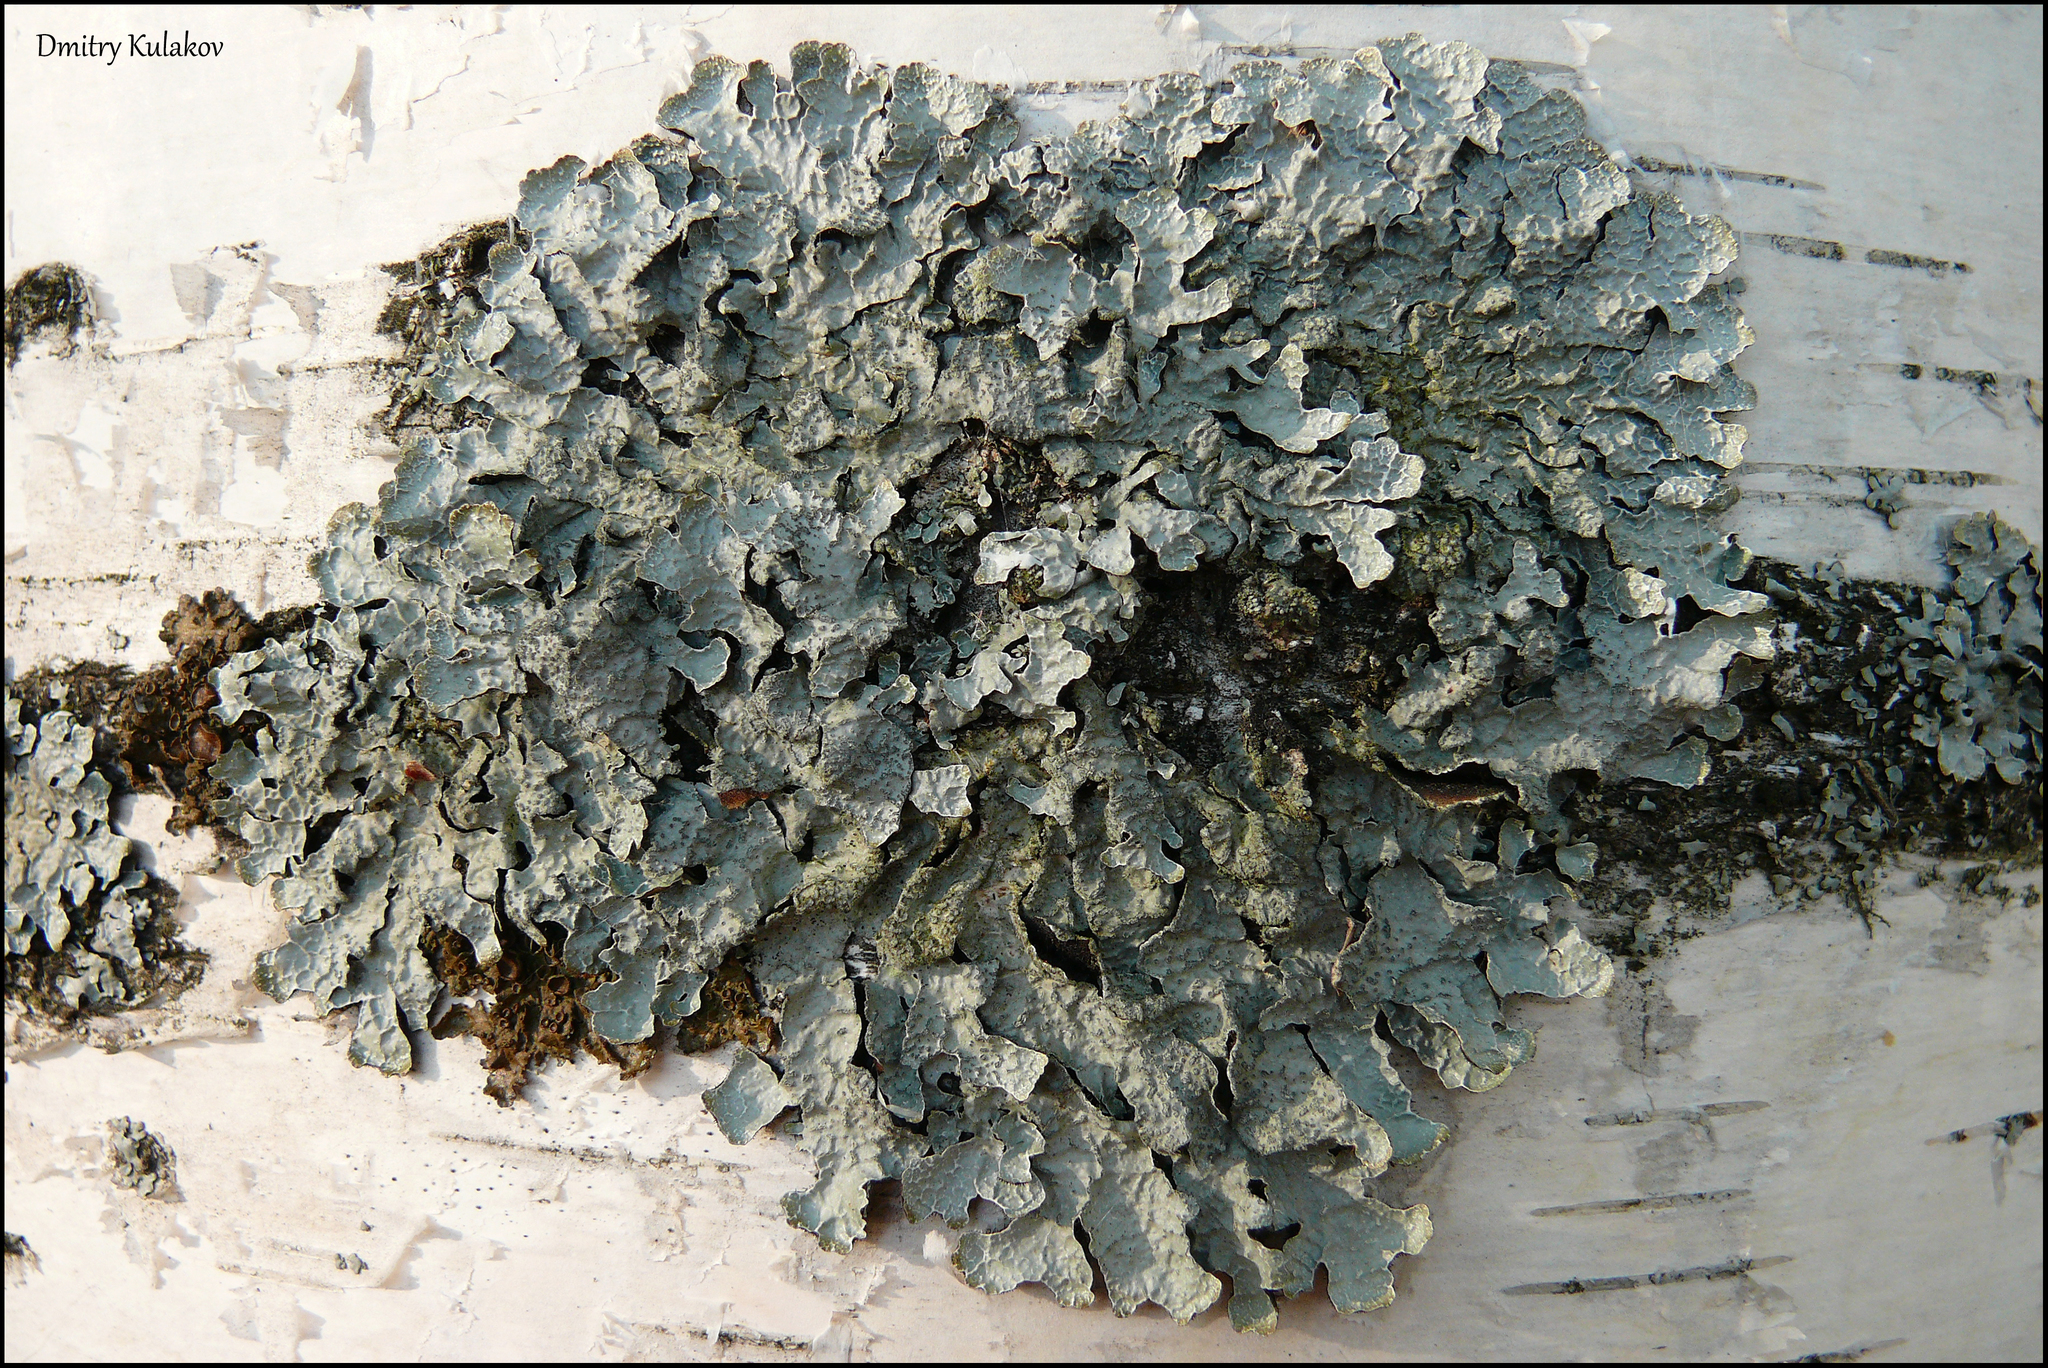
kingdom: Fungi
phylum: Ascomycota
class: Lecanoromycetes
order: Lecanorales
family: Parmeliaceae
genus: Parmelia
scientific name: Parmelia sulcata
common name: Netted shield lichen
